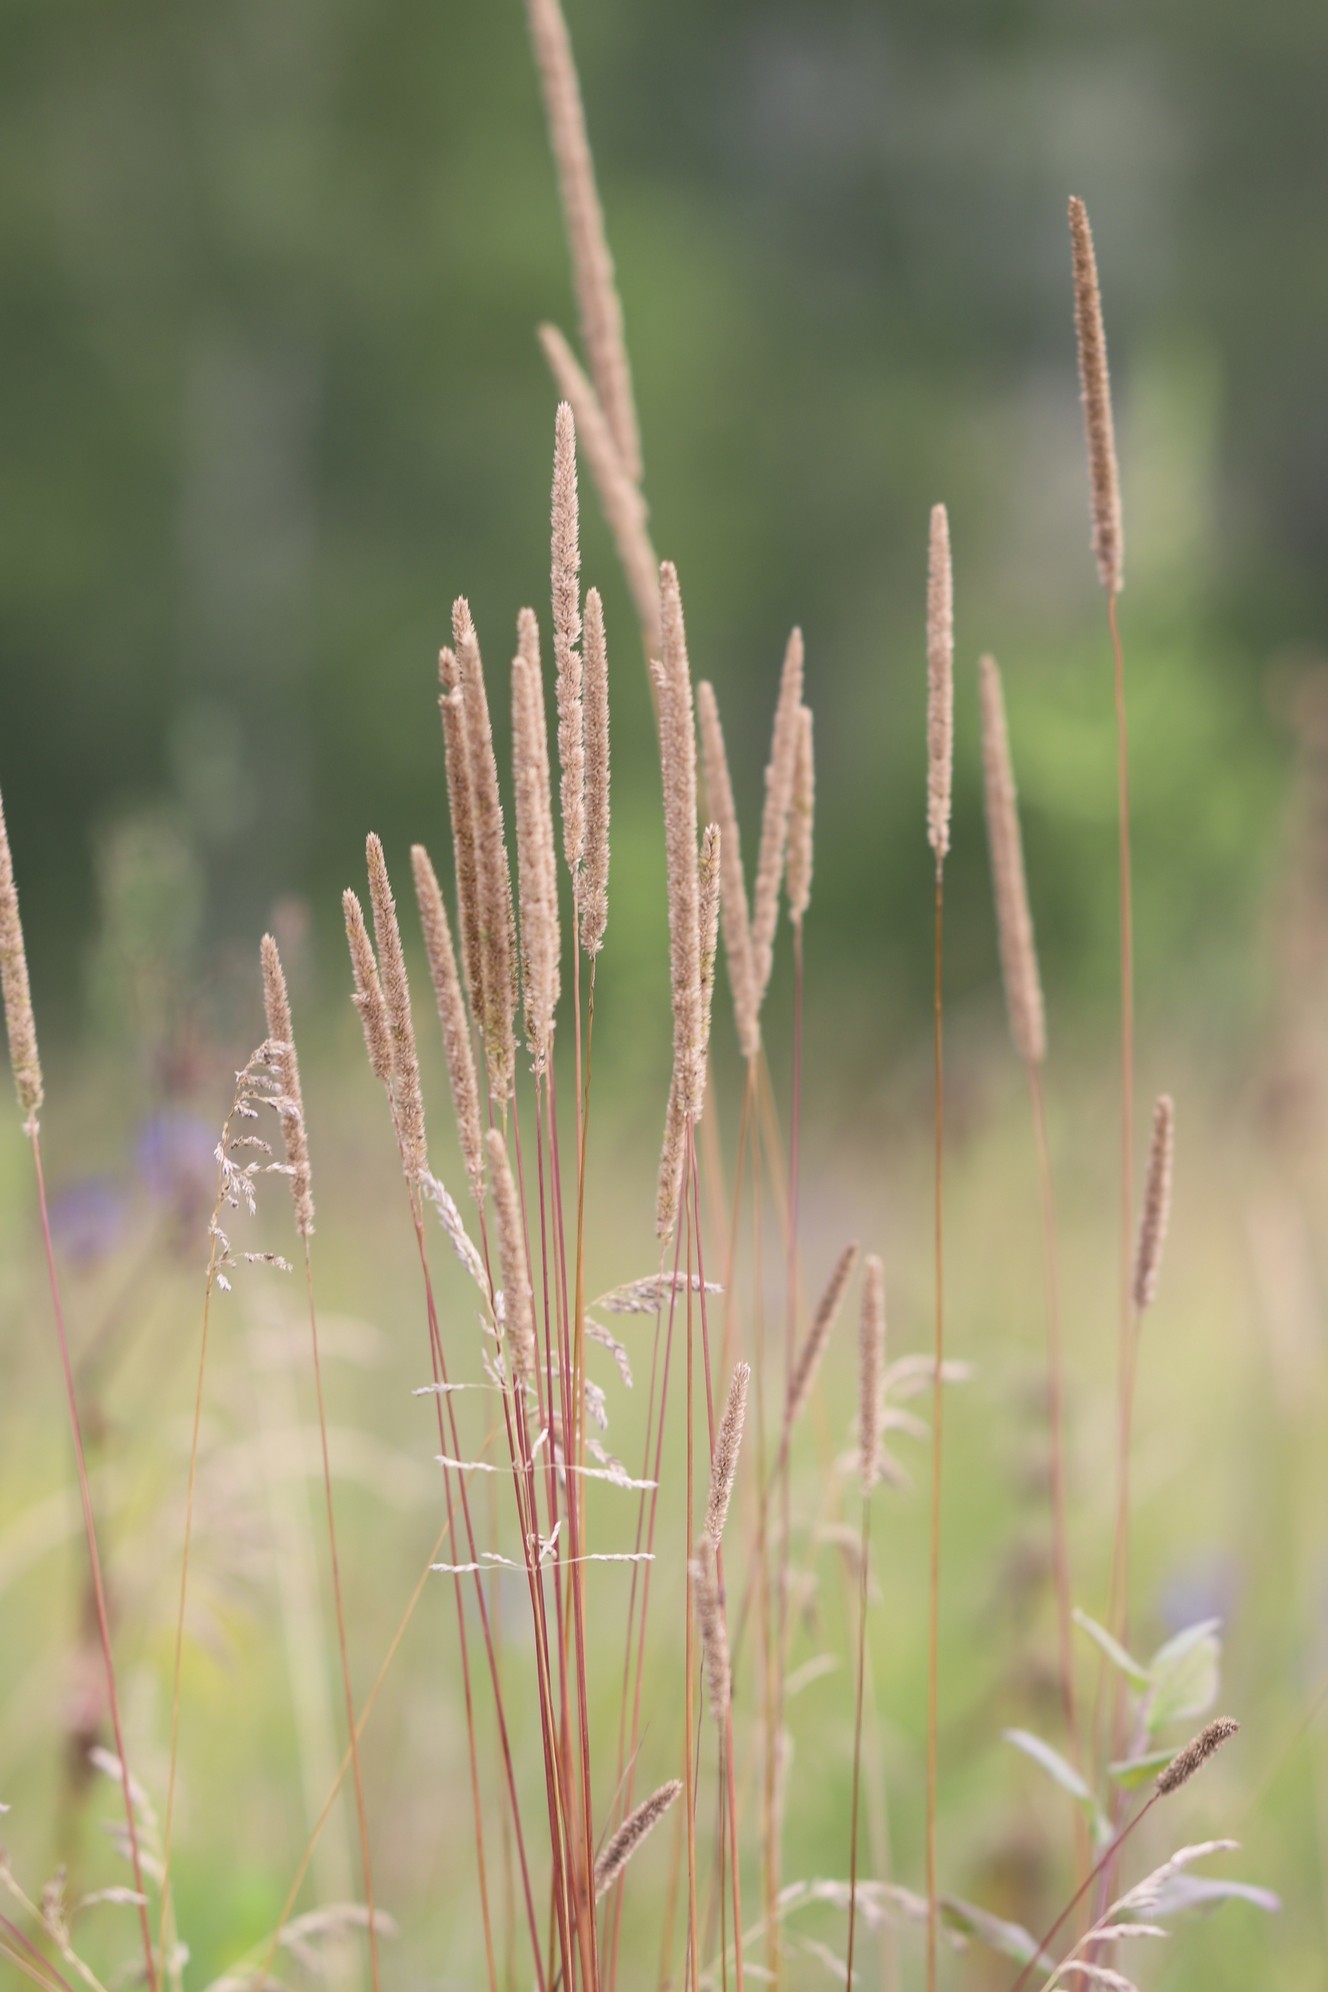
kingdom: Plantae
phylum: Tracheophyta
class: Liliopsida
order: Poales
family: Poaceae
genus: Phleum
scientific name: Phleum phleoides
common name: Purple-stem cat's-tail
